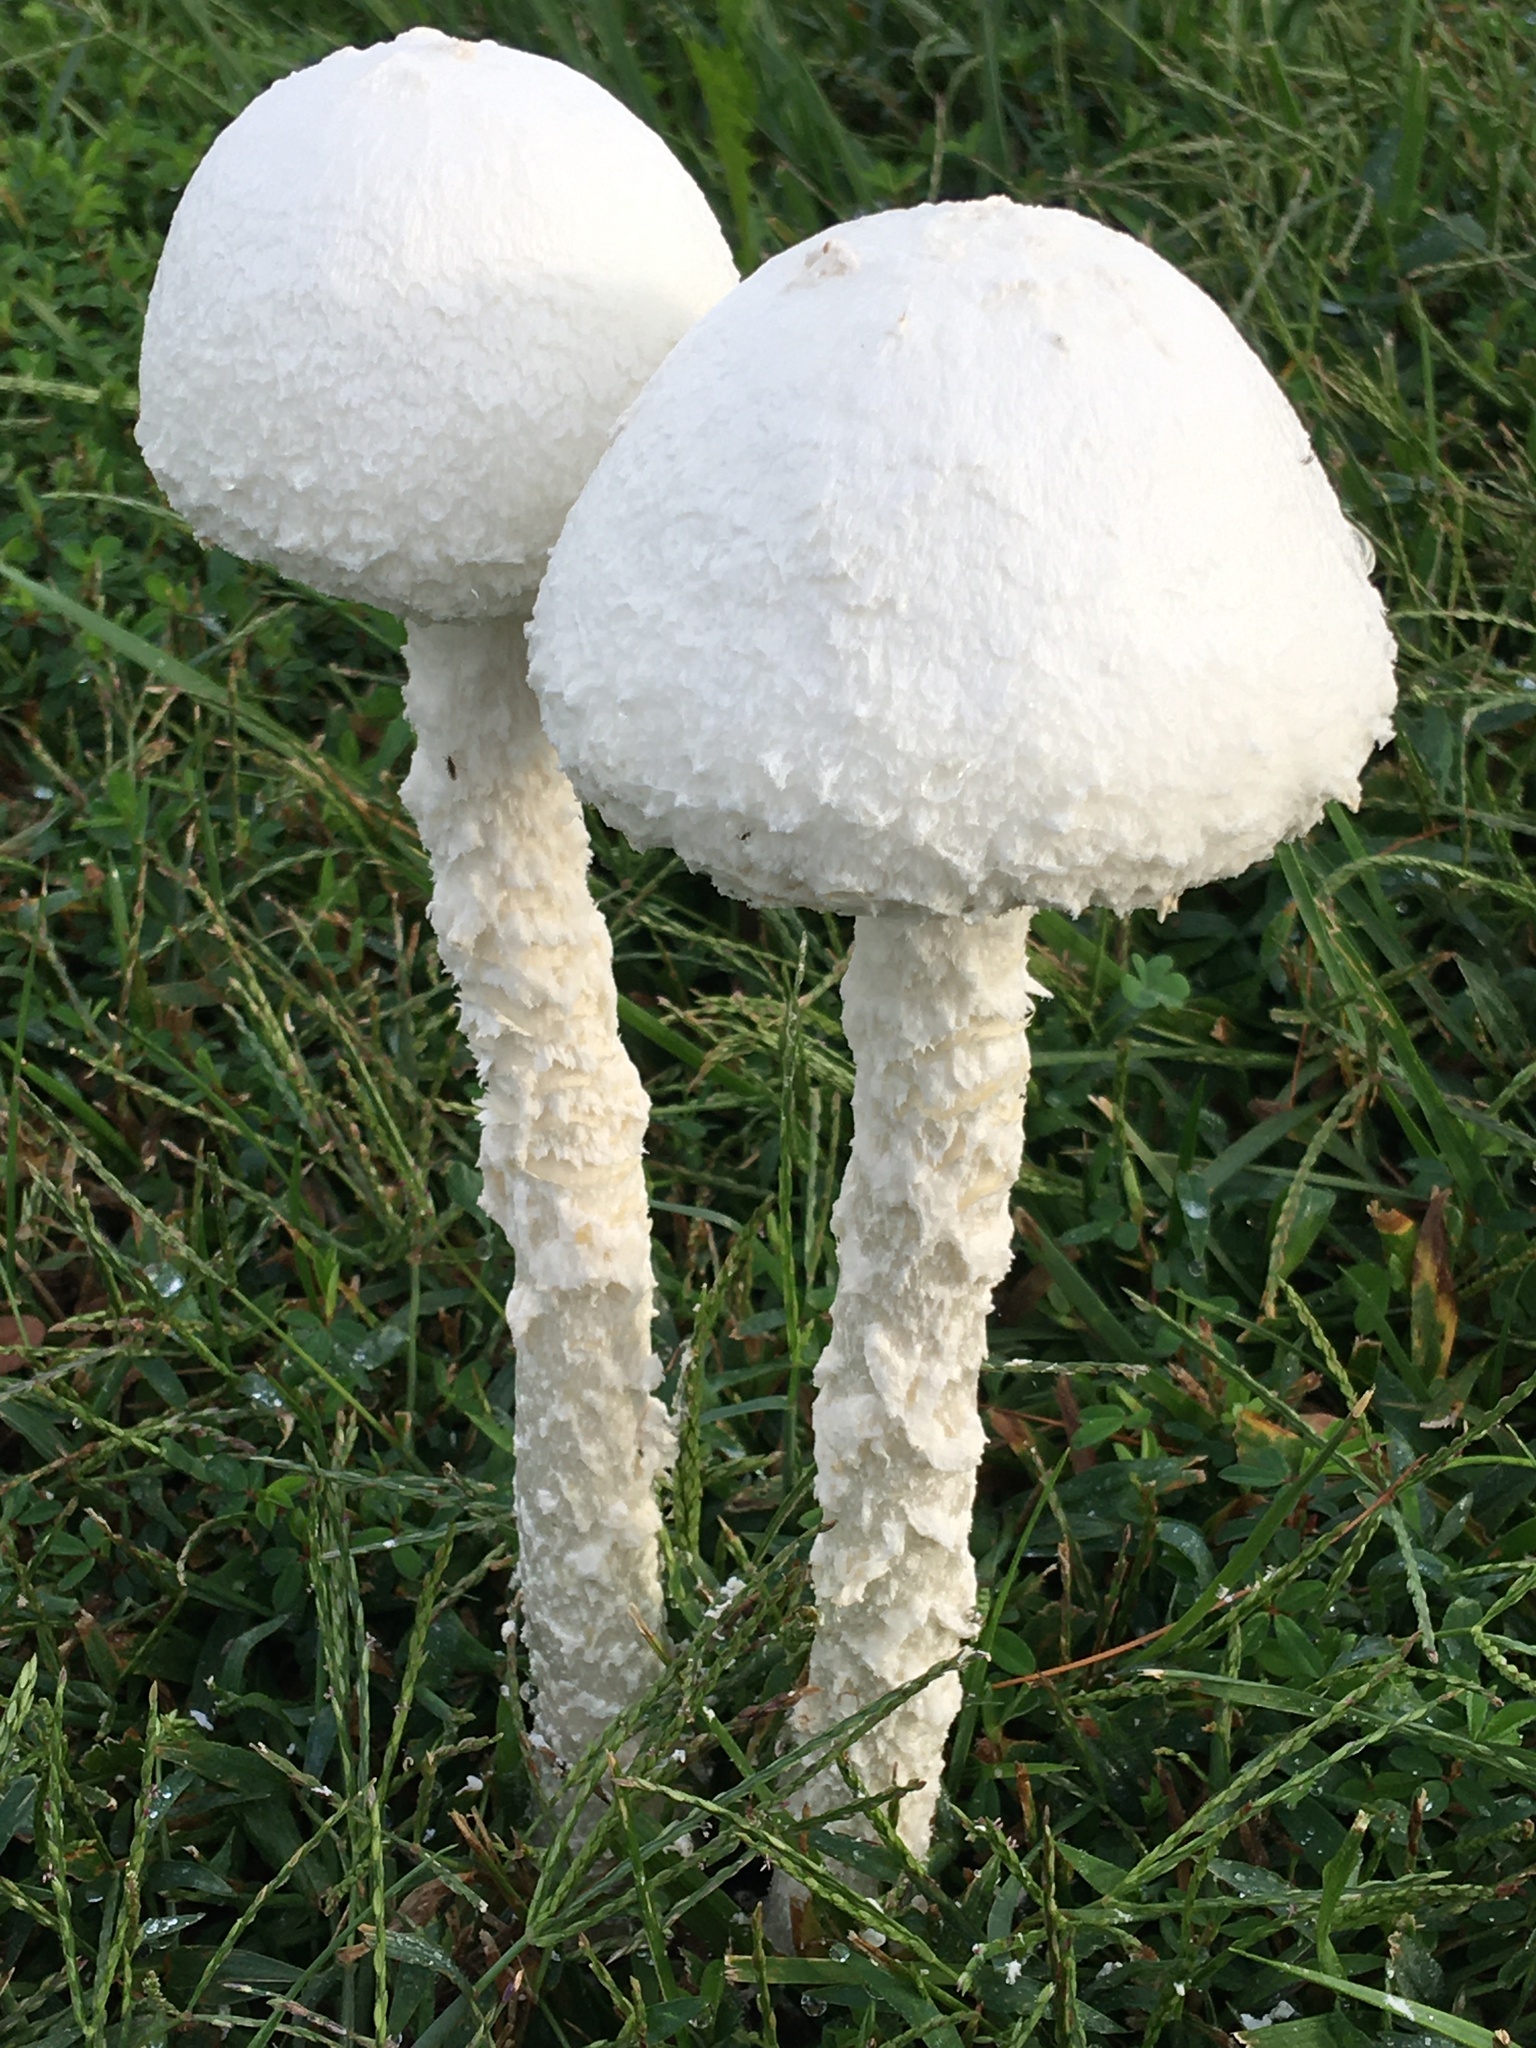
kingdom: Fungi
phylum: Basidiomycota
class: Agaricomycetes
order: Agaricales
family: Amanitaceae
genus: Amanita
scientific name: Amanita thiersii
